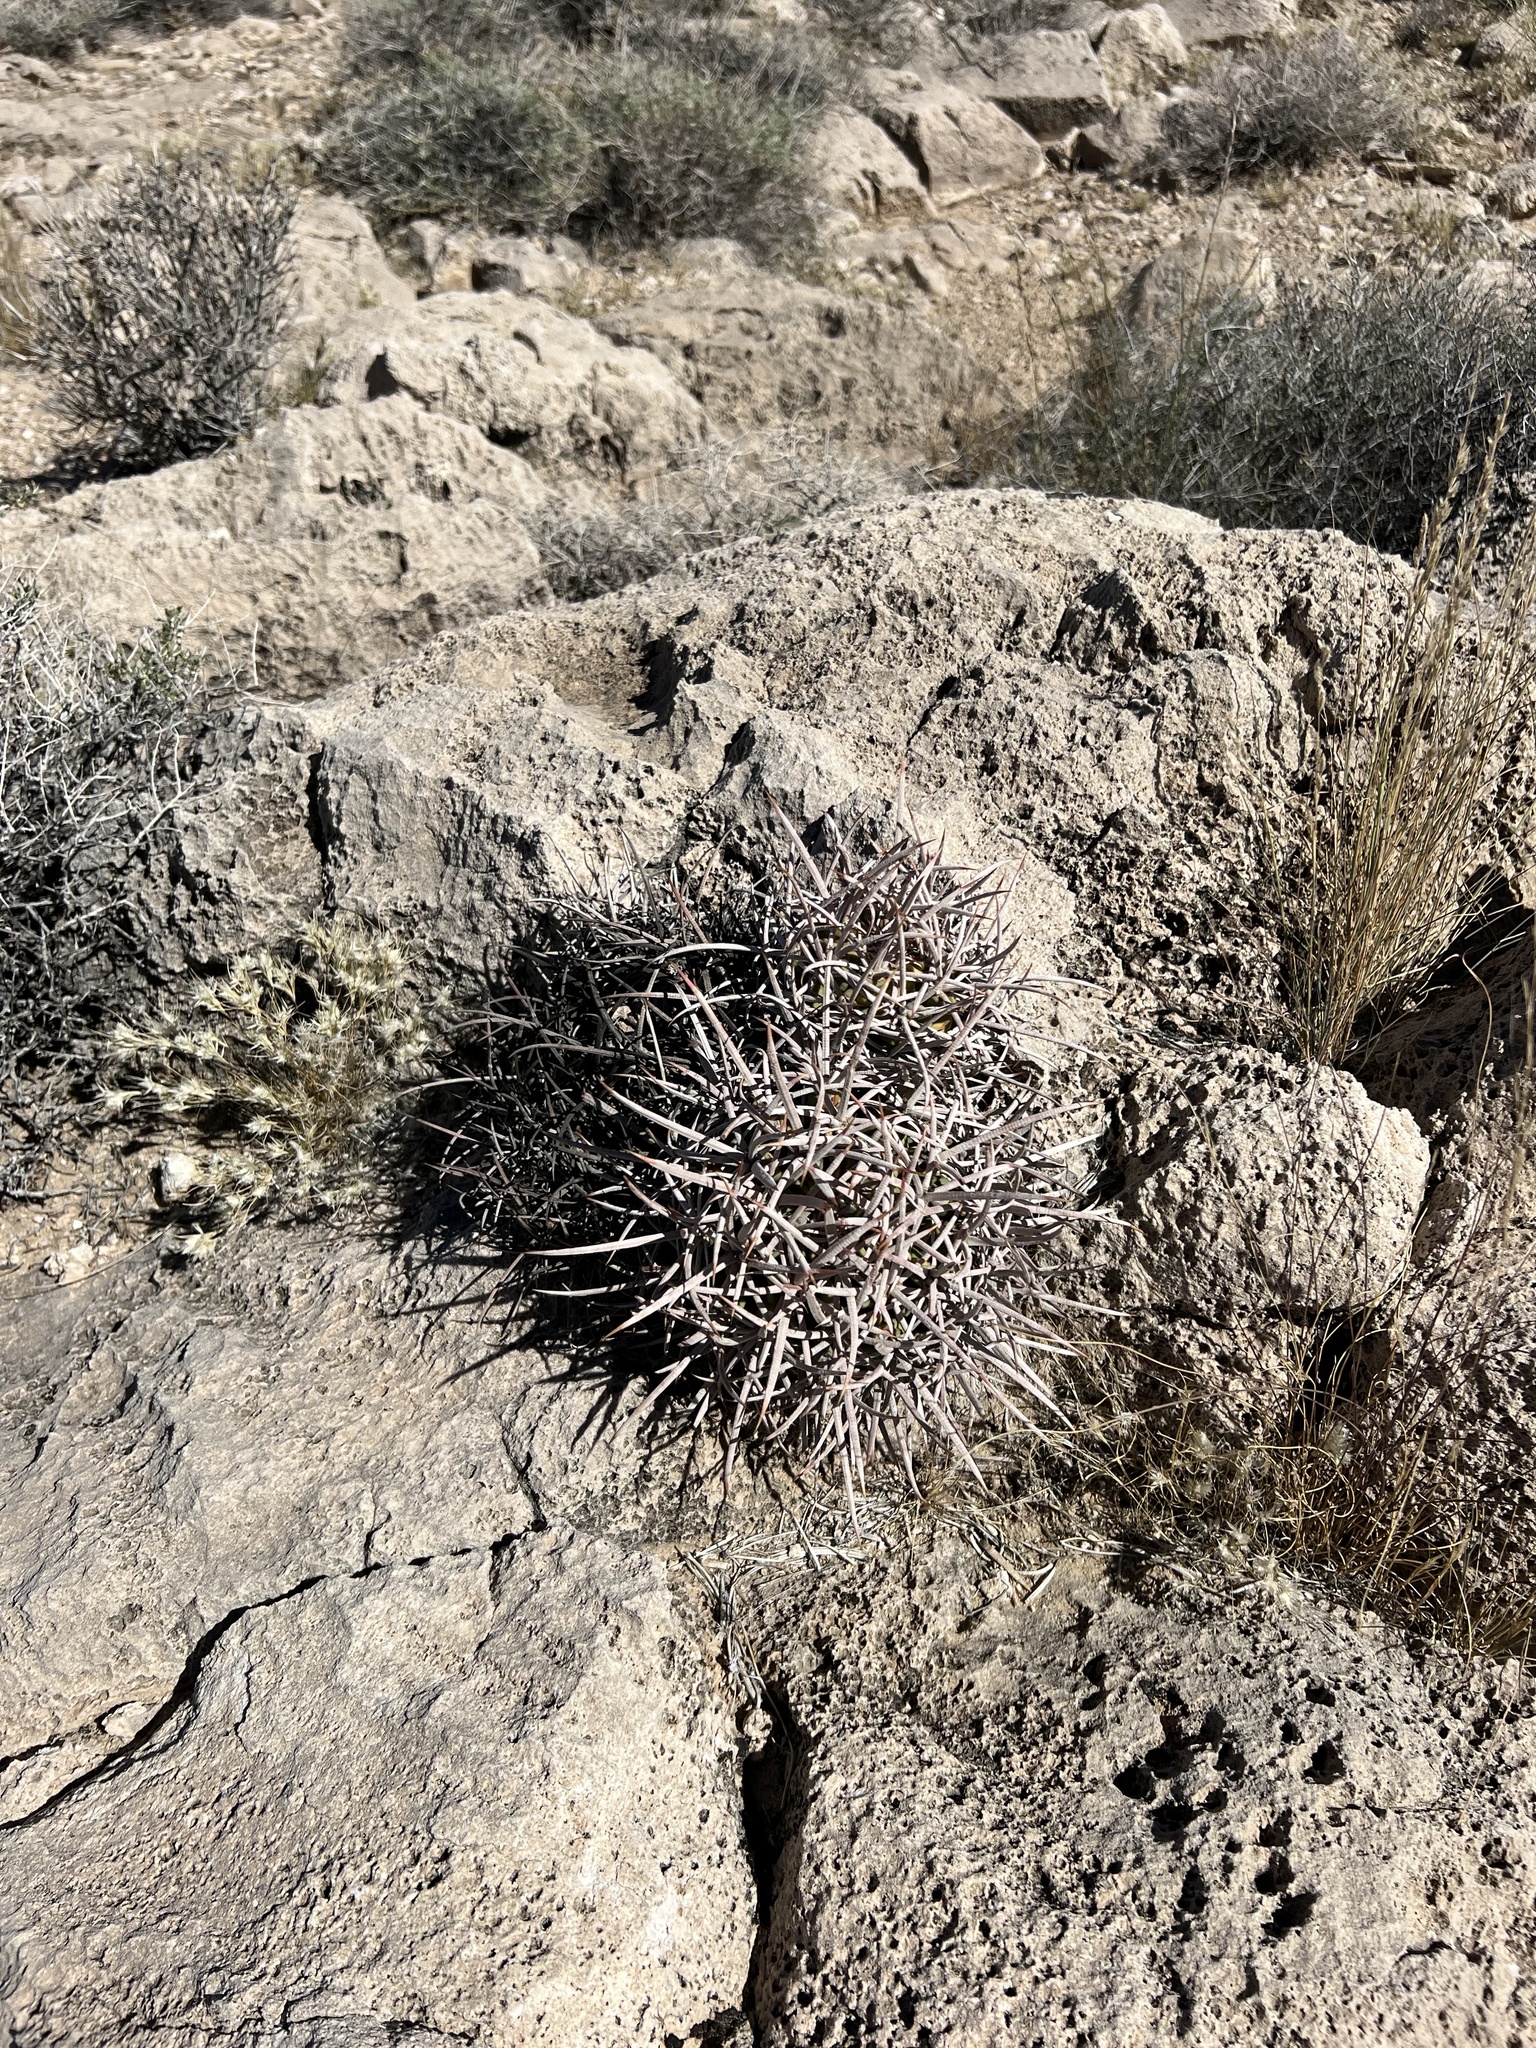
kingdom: Plantae
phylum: Tracheophyta
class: Magnoliopsida
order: Caryophyllales
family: Cactaceae
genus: Echinocactus
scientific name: Echinocactus polycephalus
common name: Cottontop cactus
